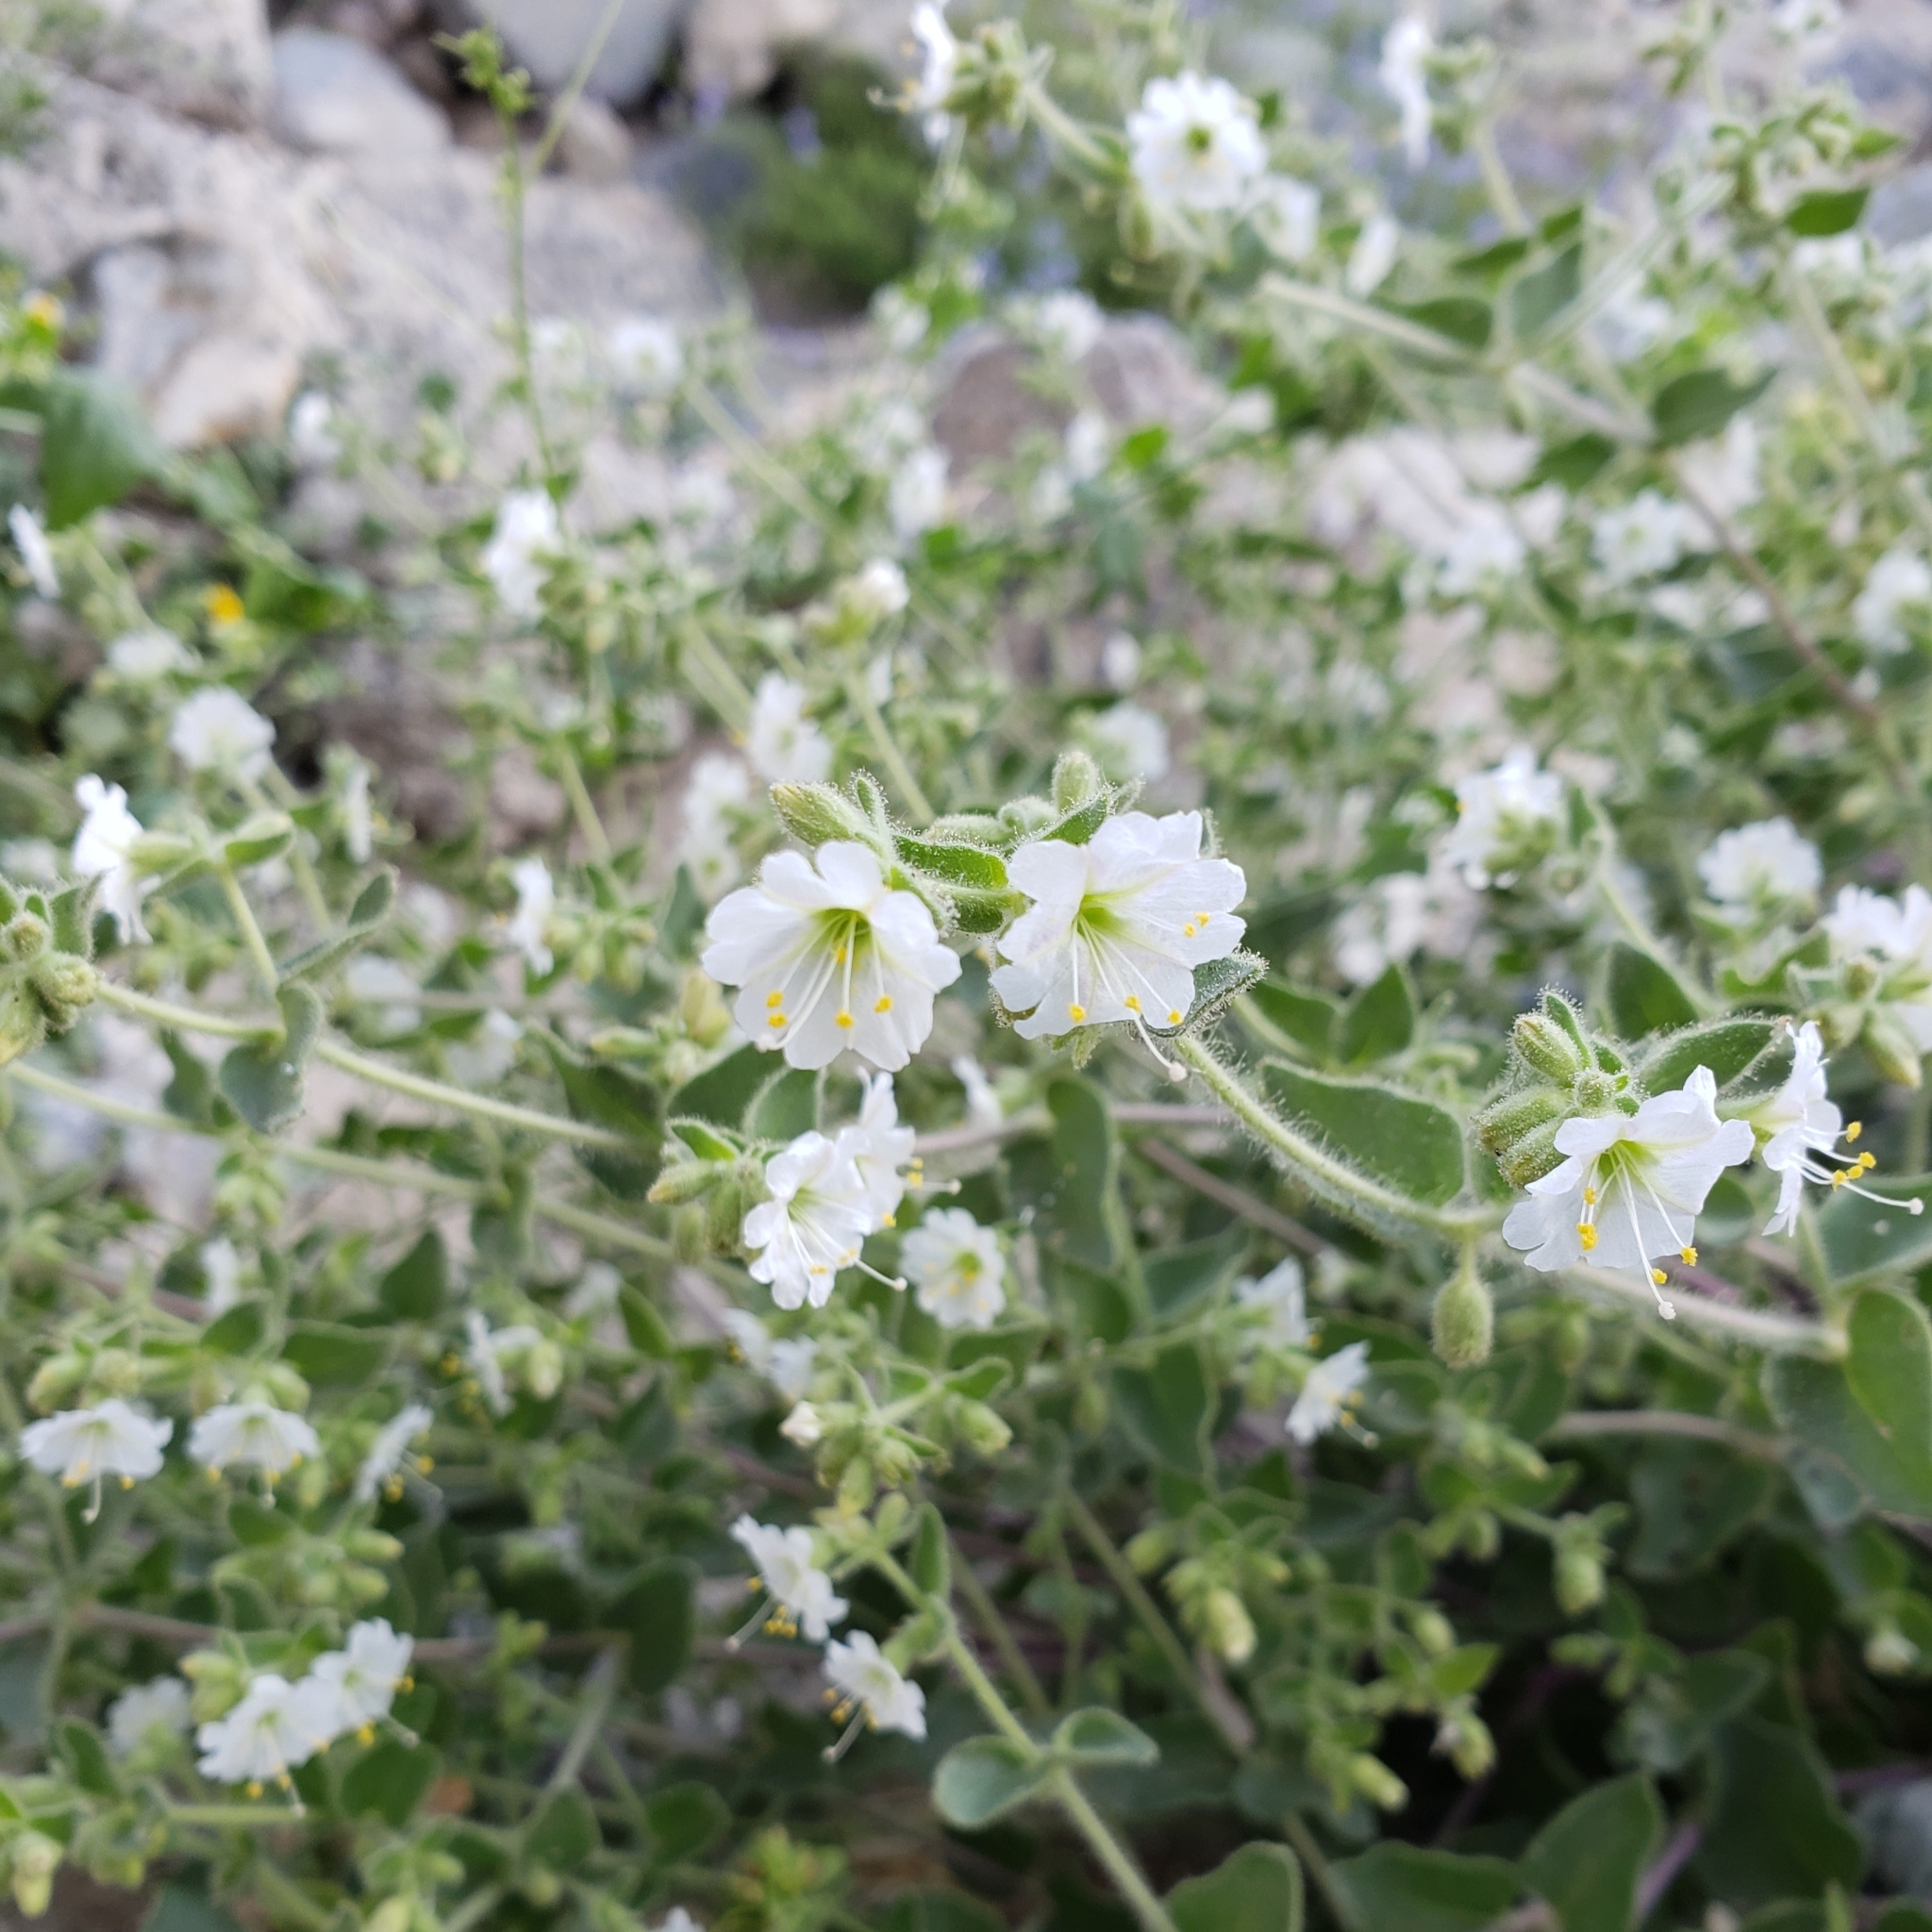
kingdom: Plantae
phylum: Tracheophyta
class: Magnoliopsida
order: Caryophyllales
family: Nyctaginaceae
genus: Mirabilis
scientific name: Mirabilis laevis
